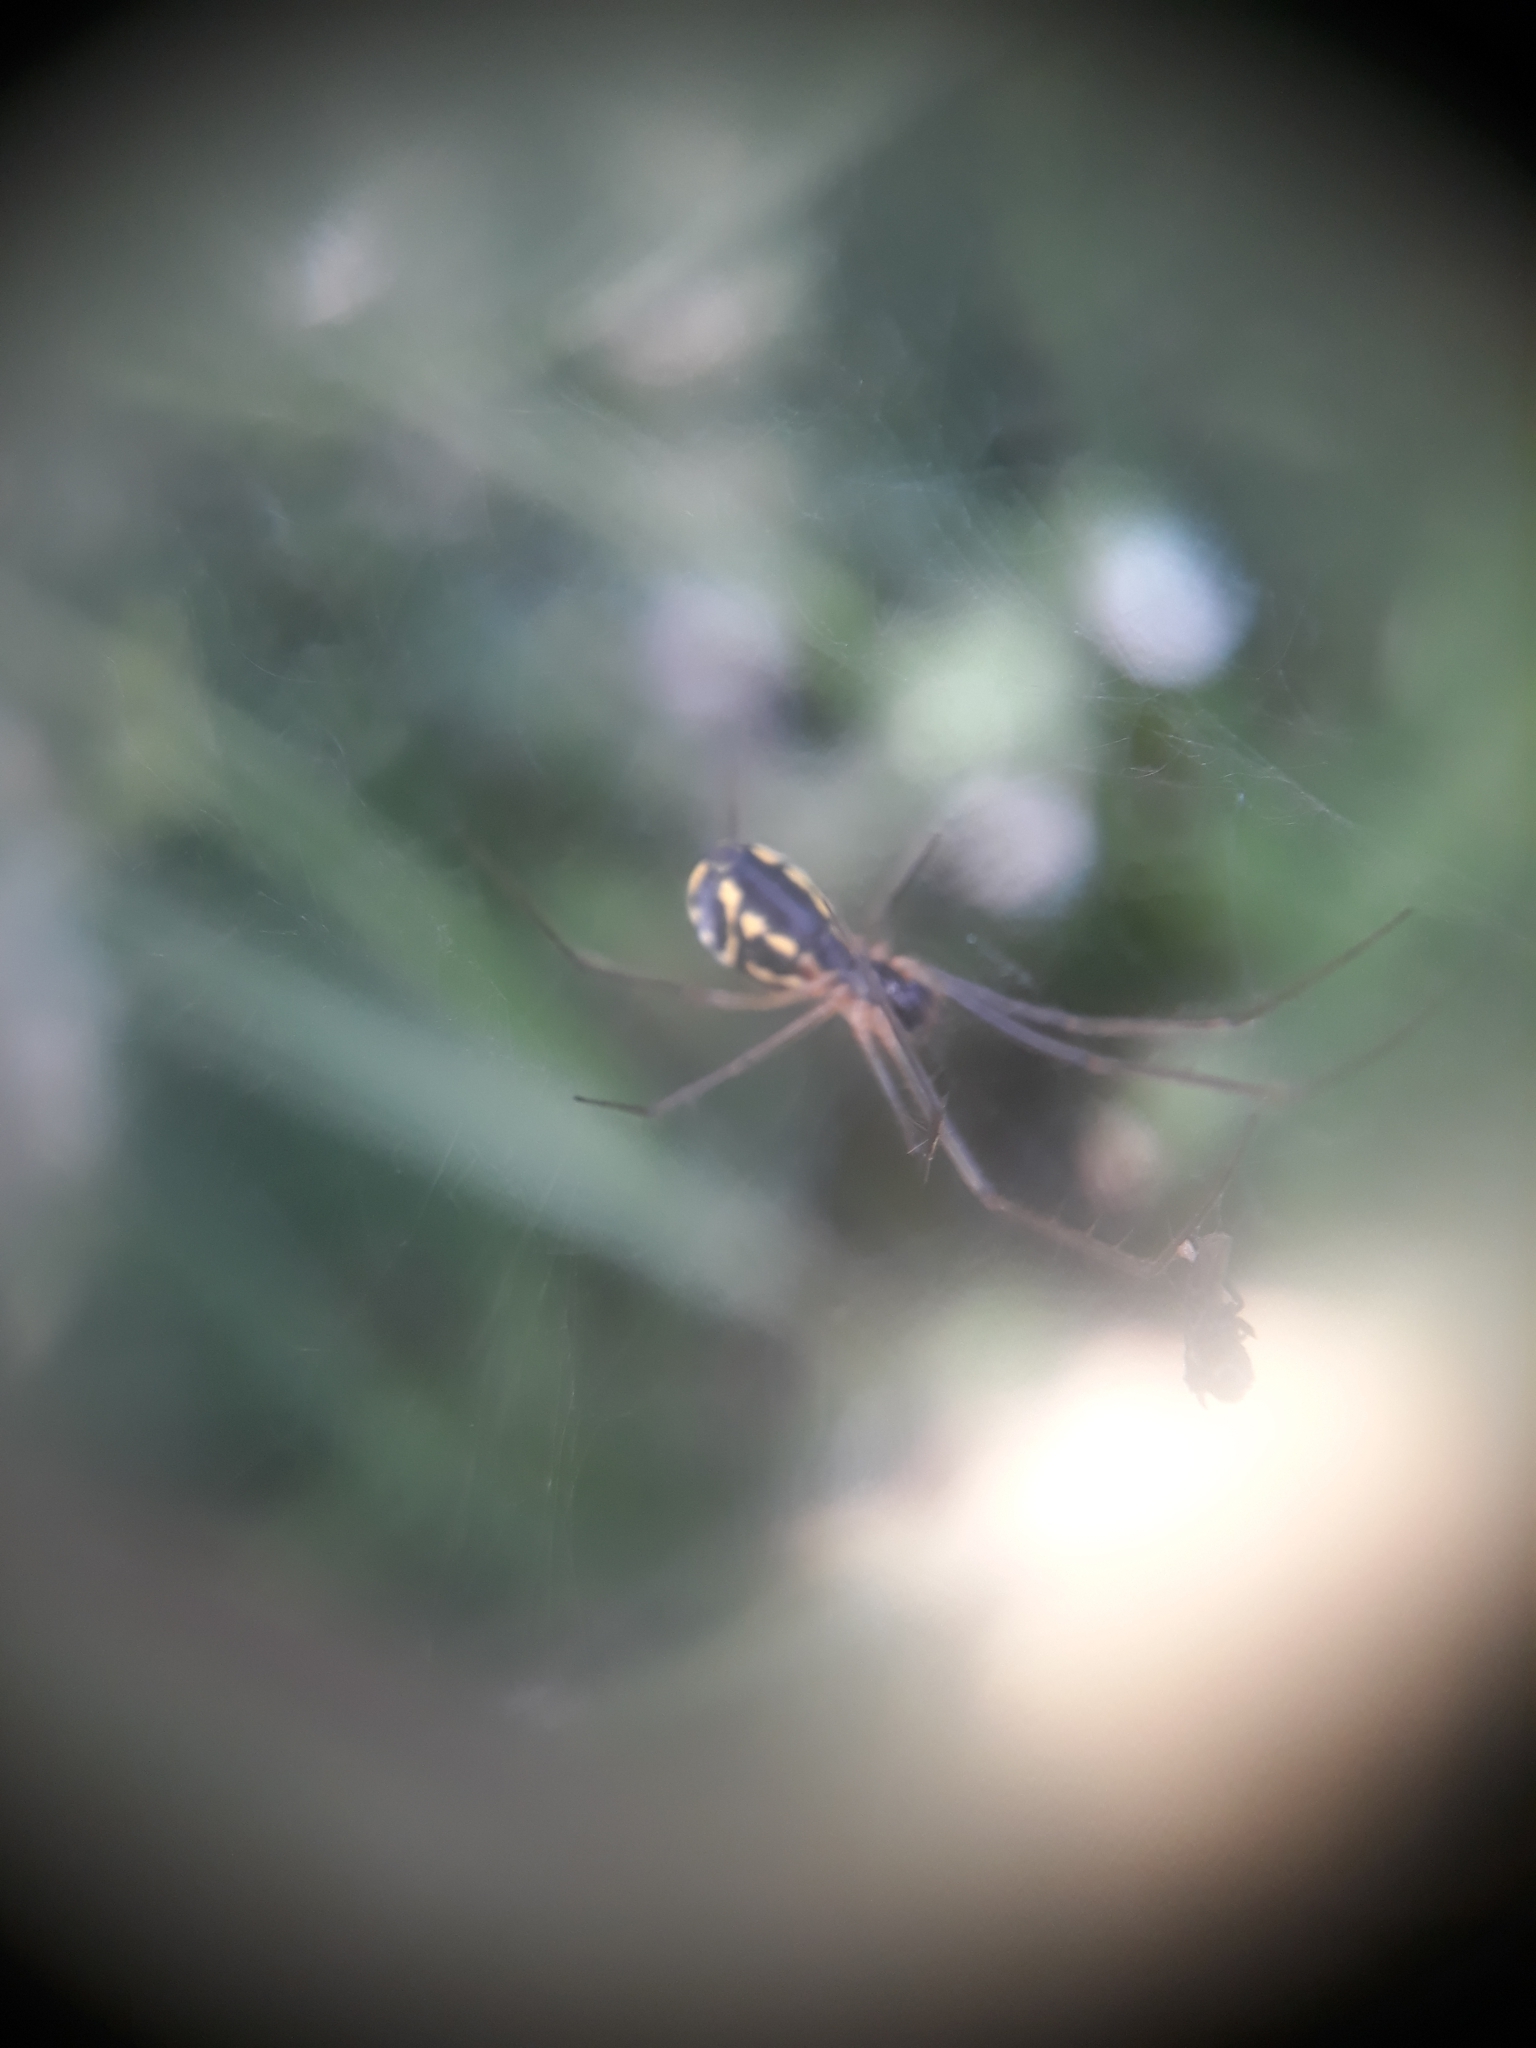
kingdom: Animalia
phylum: Arthropoda
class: Arachnida
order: Araneae
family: Linyphiidae
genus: Neriene
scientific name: Neriene radiata
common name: Filmy dome spider
